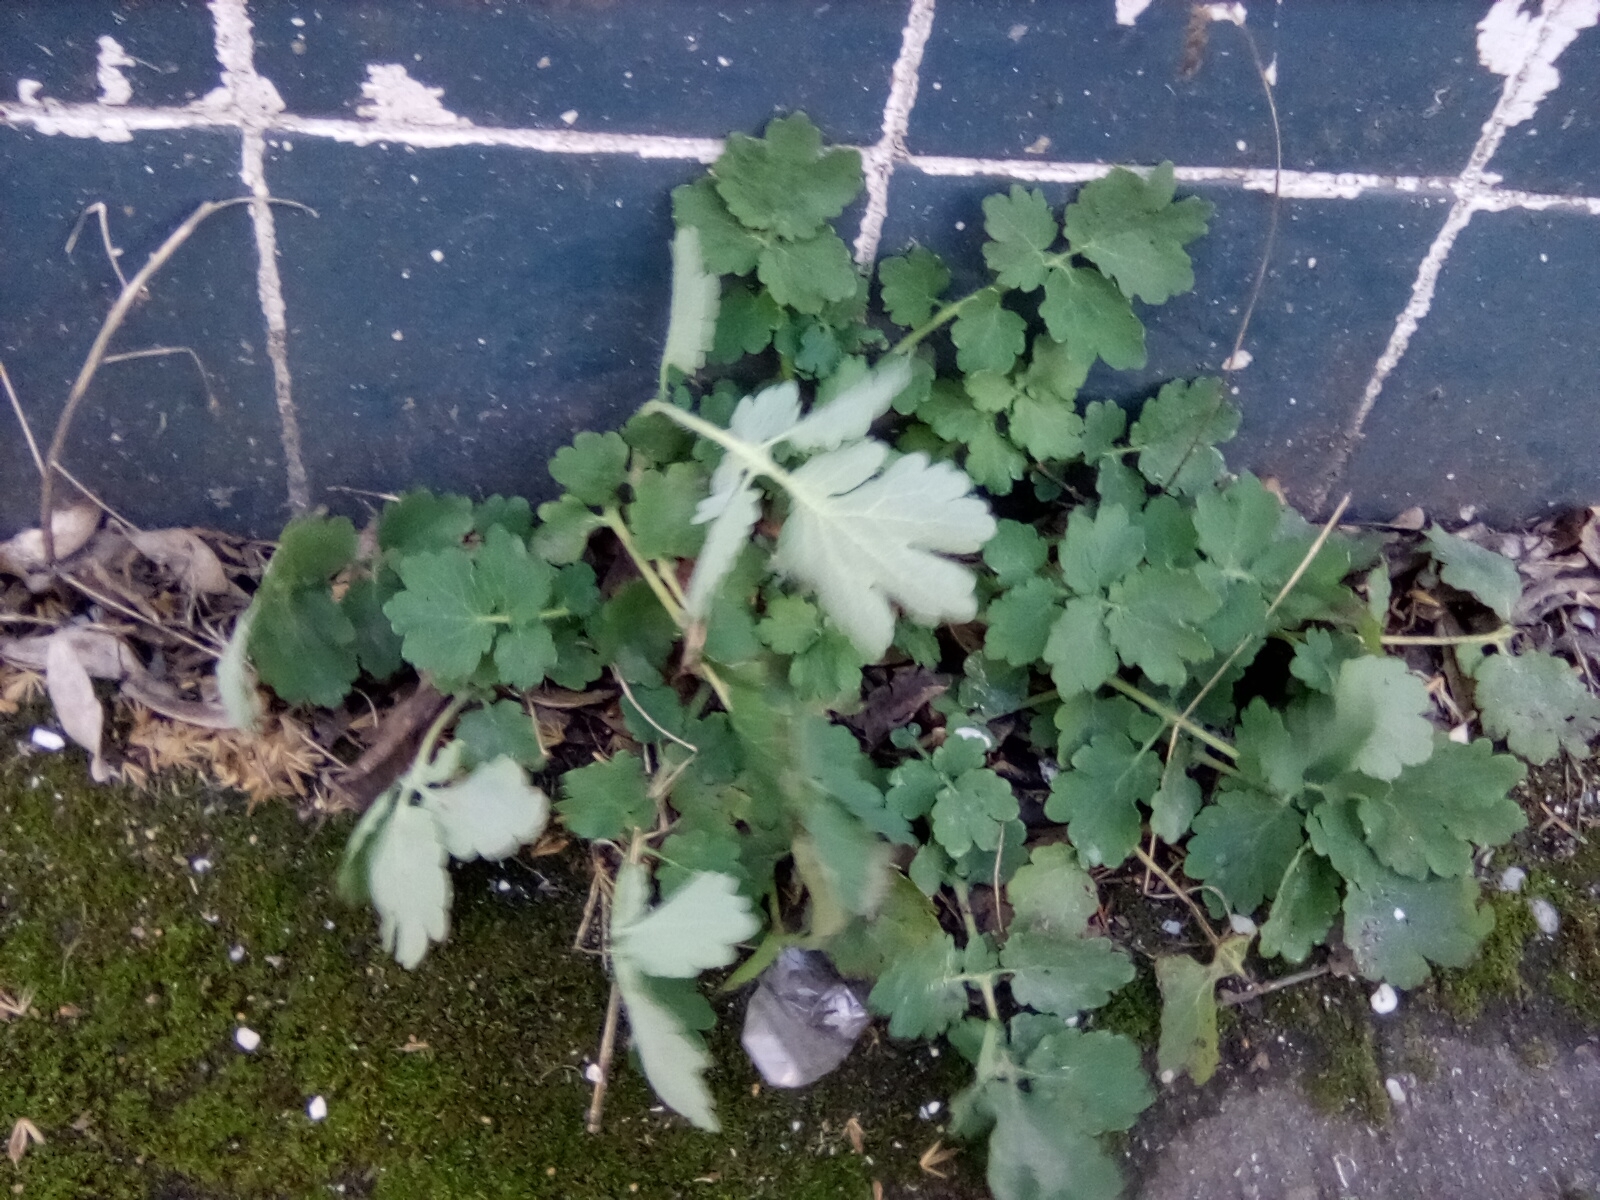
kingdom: Plantae
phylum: Tracheophyta
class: Magnoliopsida
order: Ranunculales
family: Papaveraceae
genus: Chelidonium
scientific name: Chelidonium majus
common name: Greater celandine
